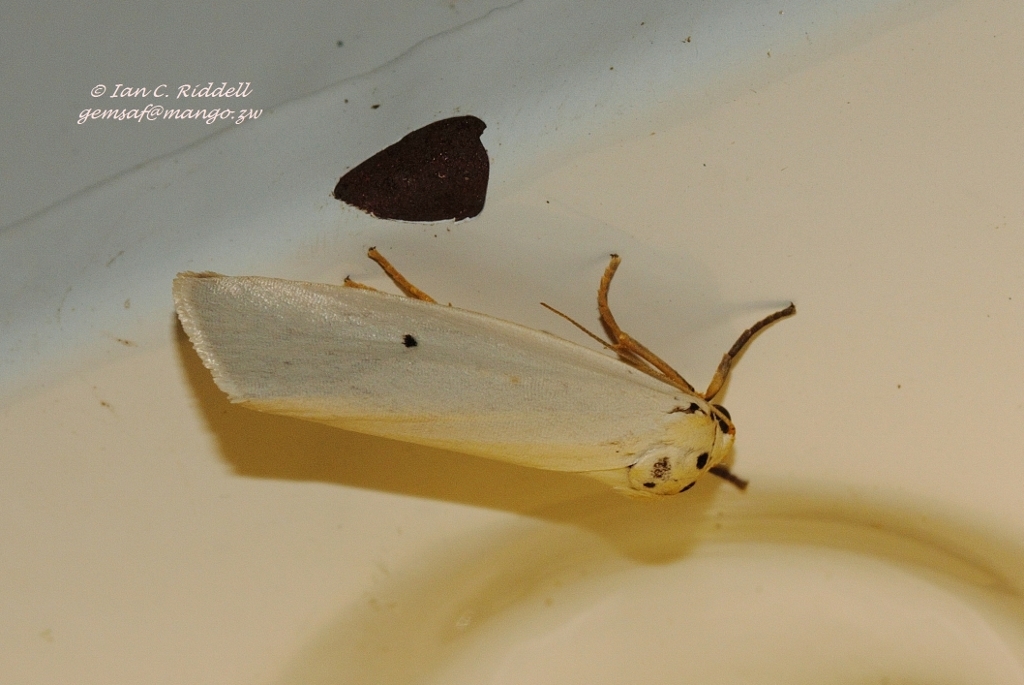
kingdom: Animalia
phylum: Arthropoda
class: Insecta
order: Lepidoptera
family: Erebidae
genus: Paraona
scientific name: Paraona interjecta
